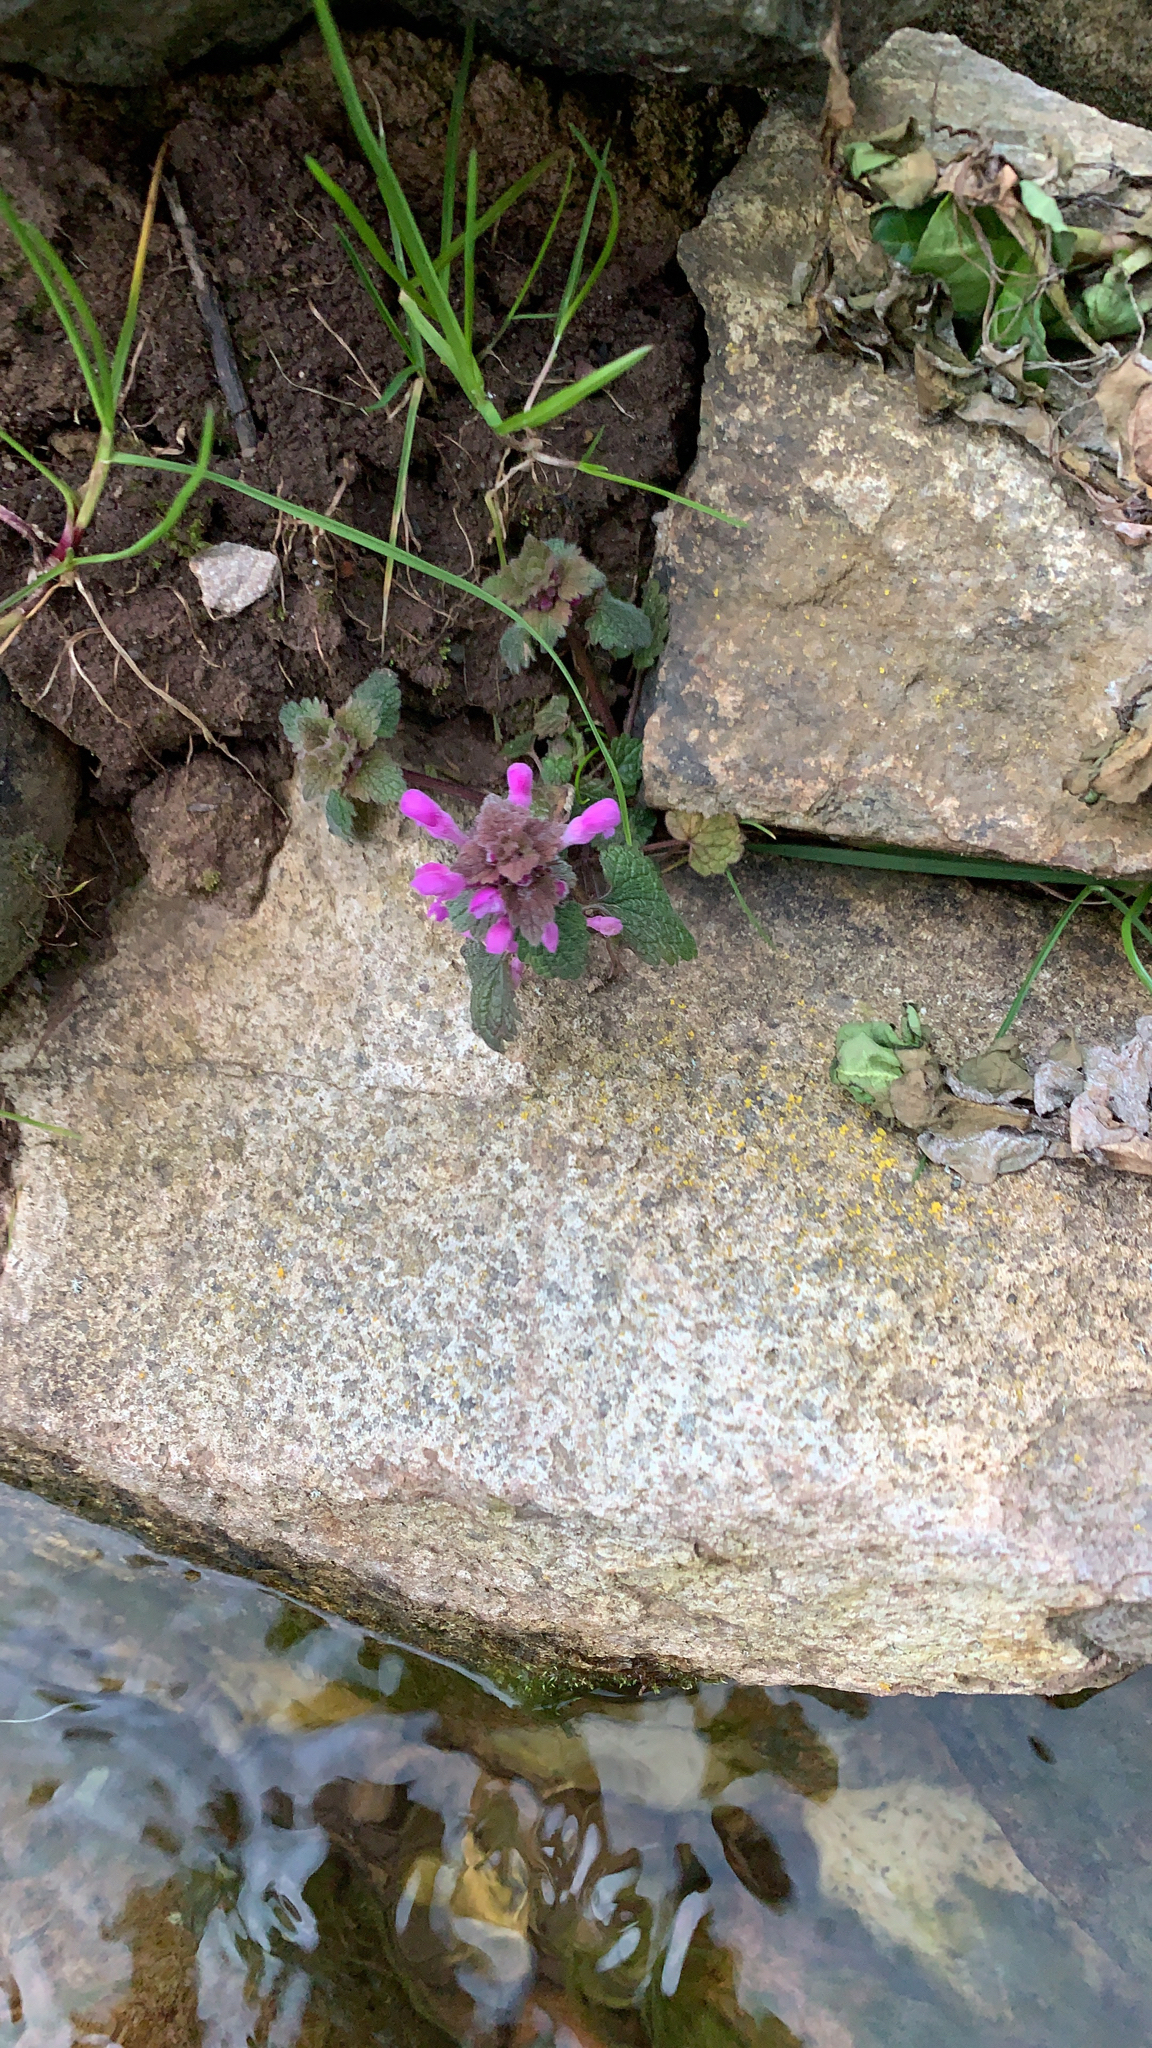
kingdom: Plantae
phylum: Tracheophyta
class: Magnoliopsida
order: Lamiales
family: Lamiaceae
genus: Lamium
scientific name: Lamium purpureum
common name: Red dead-nettle
